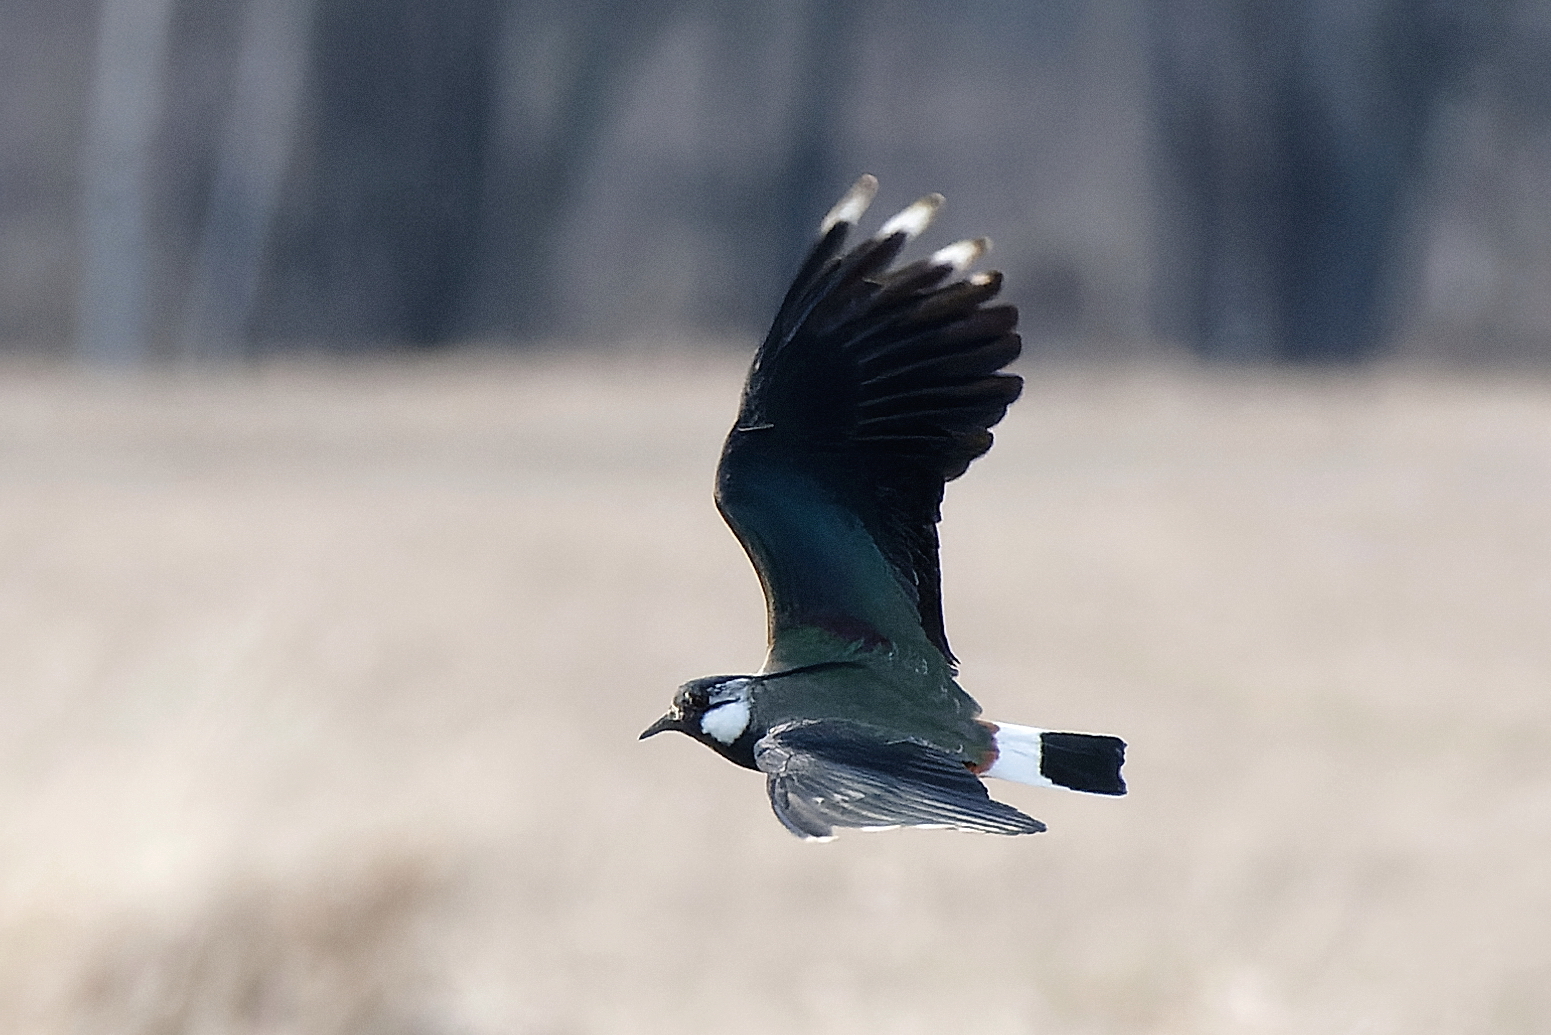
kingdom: Animalia
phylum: Chordata
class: Aves
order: Charadriiformes
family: Charadriidae
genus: Vanellus
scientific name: Vanellus vanellus
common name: Northern lapwing
